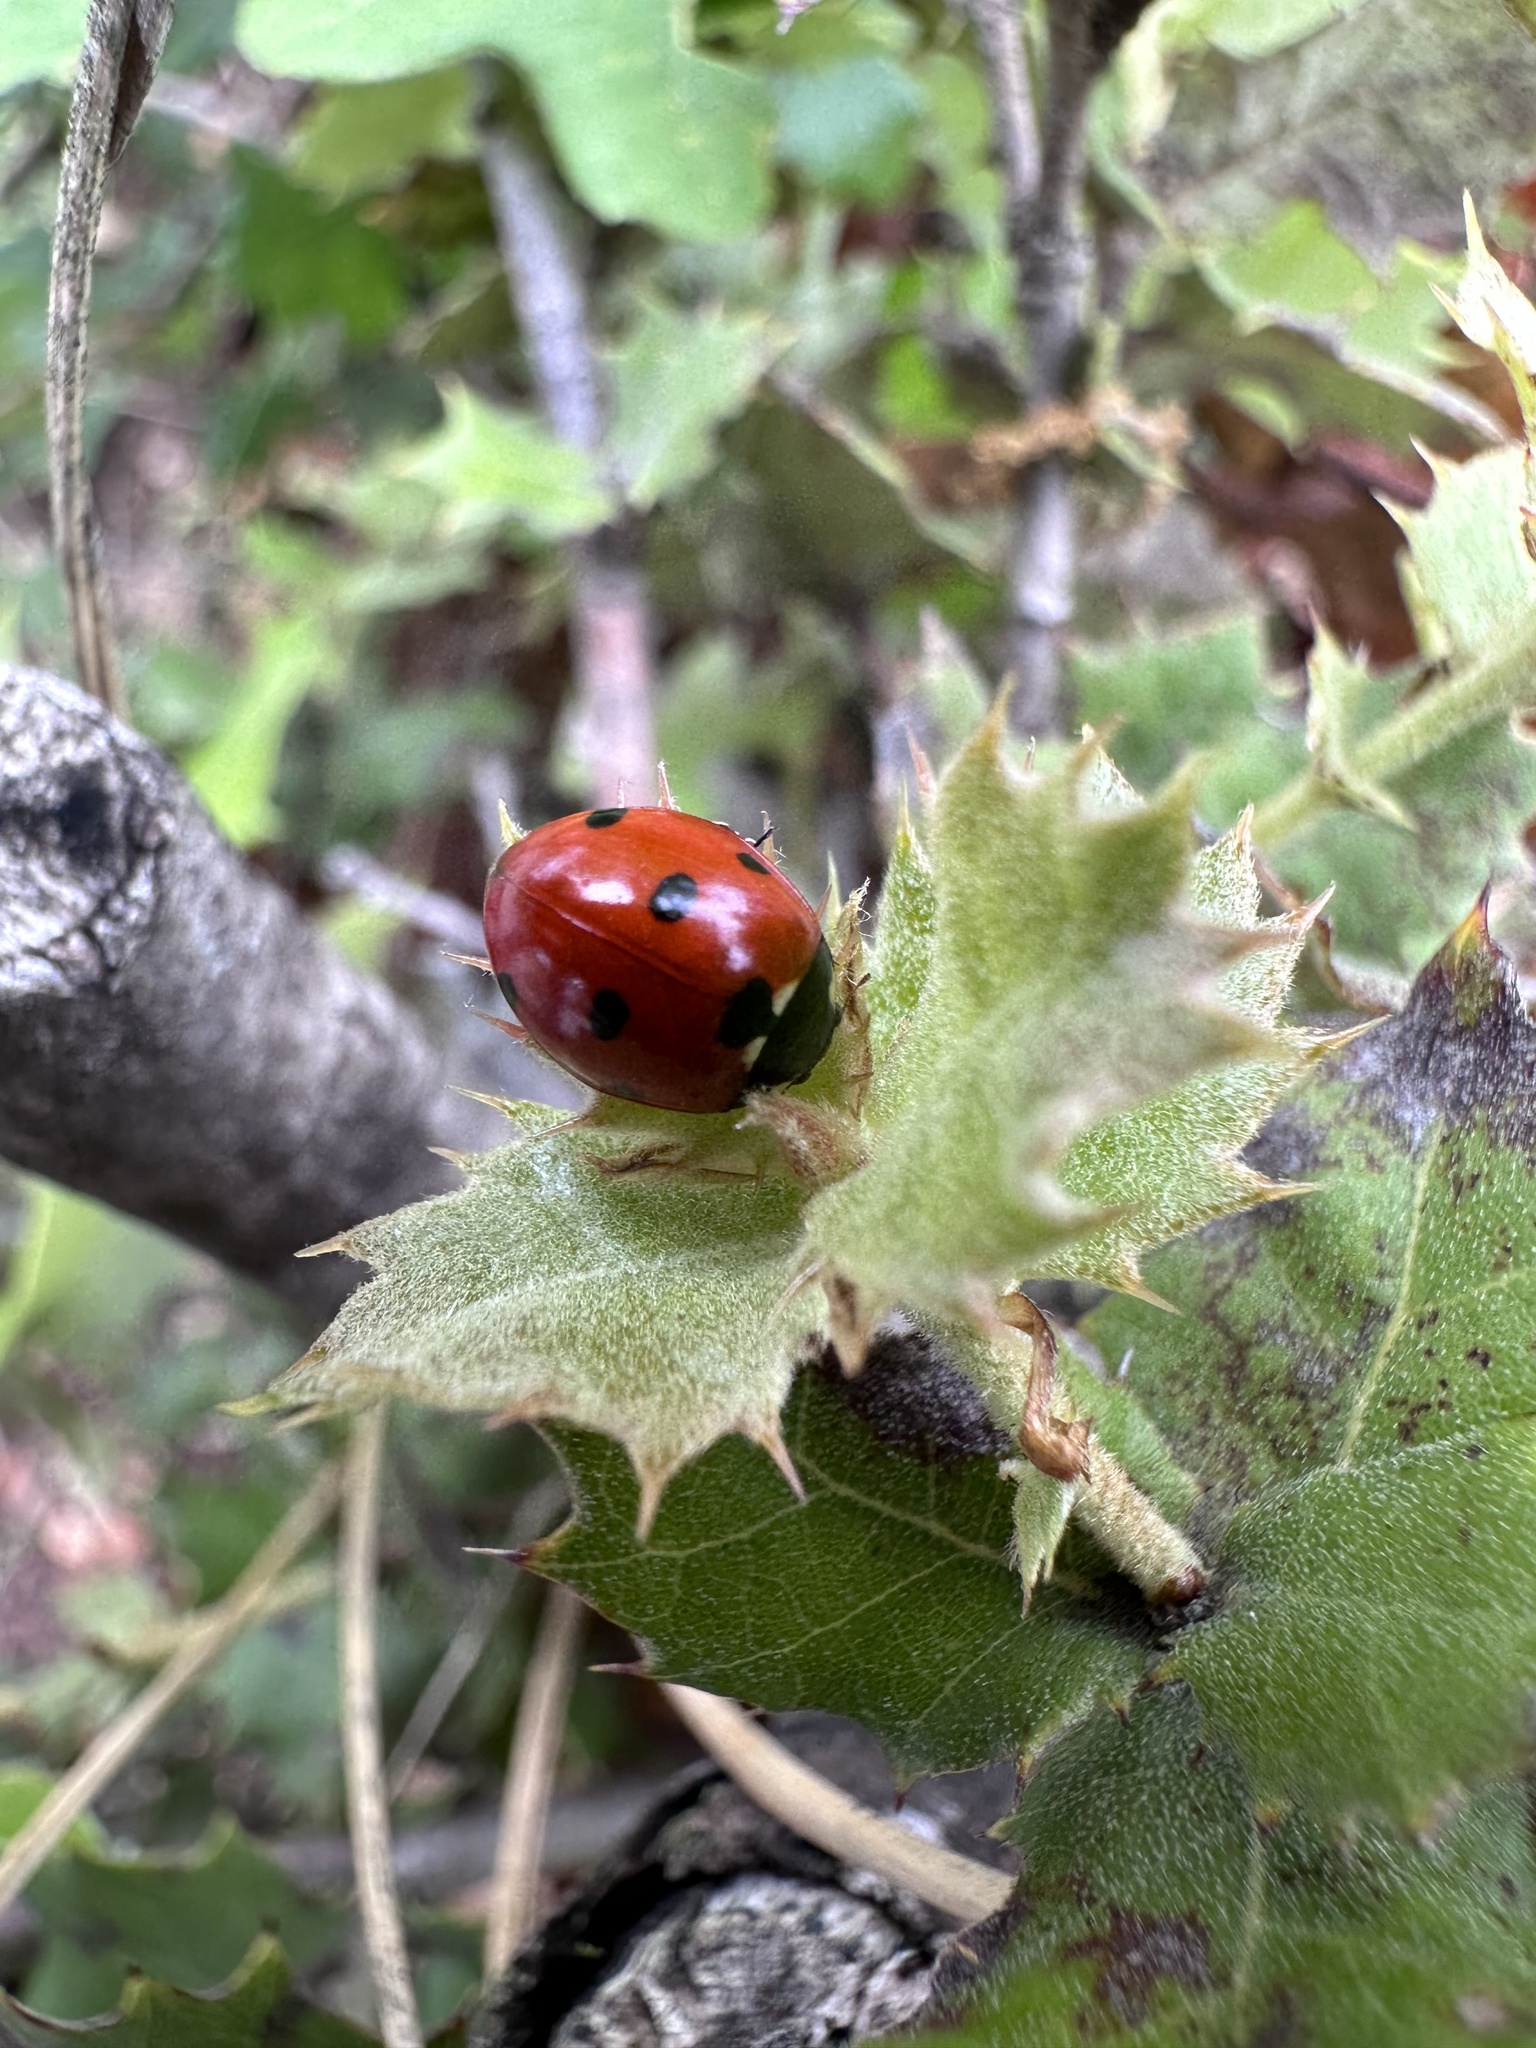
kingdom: Animalia
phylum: Arthropoda
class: Insecta
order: Coleoptera
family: Coccinellidae
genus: Coccinella
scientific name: Coccinella septempunctata
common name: Sevenspotted lady beetle
